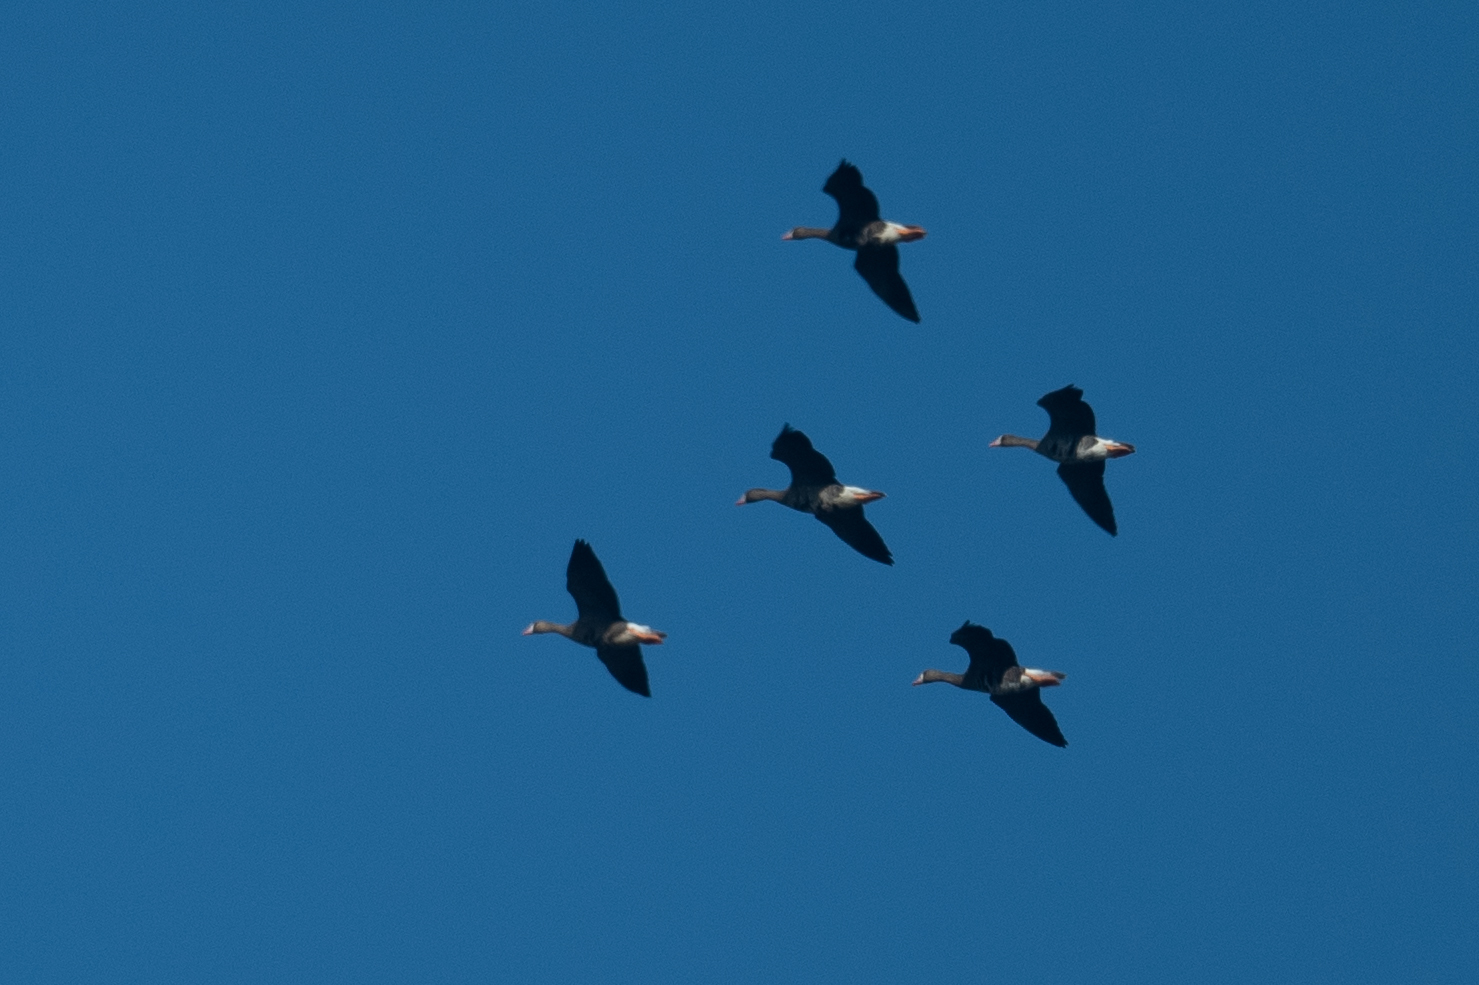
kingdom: Animalia
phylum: Chordata
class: Aves
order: Anseriformes
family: Anatidae
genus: Anser
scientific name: Anser albifrons
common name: Greater white-fronted goose
